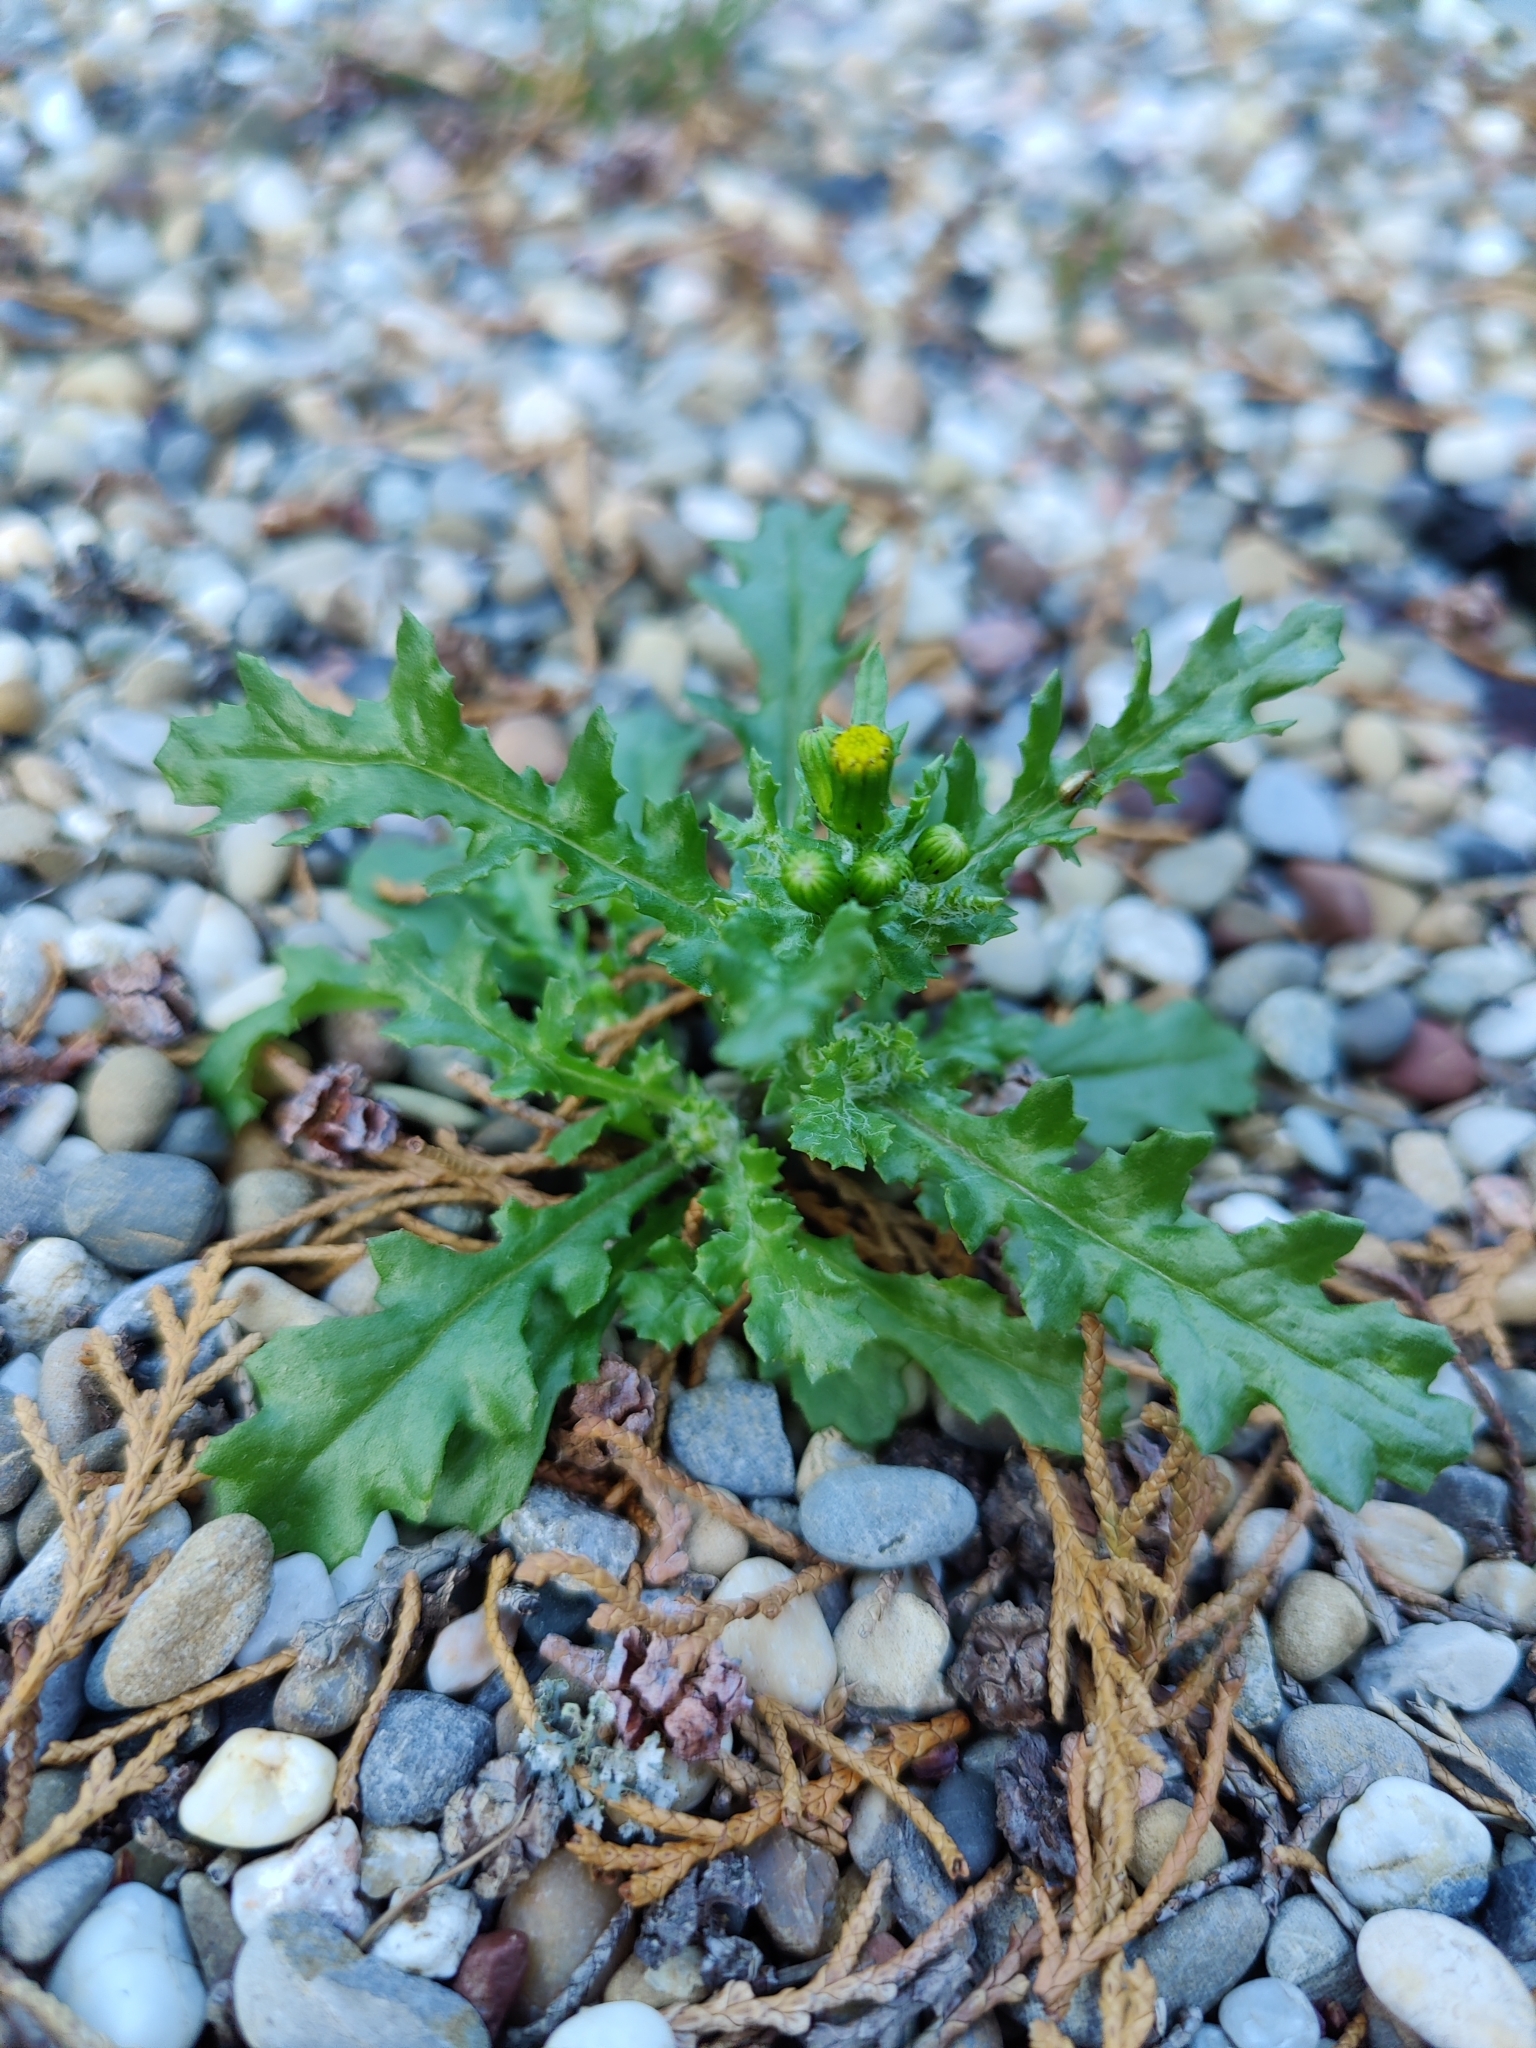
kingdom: Plantae
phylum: Tracheophyta
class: Magnoliopsida
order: Asterales
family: Asteraceae
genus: Senecio
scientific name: Senecio vulgaris
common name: Old-man-in-the-spring
